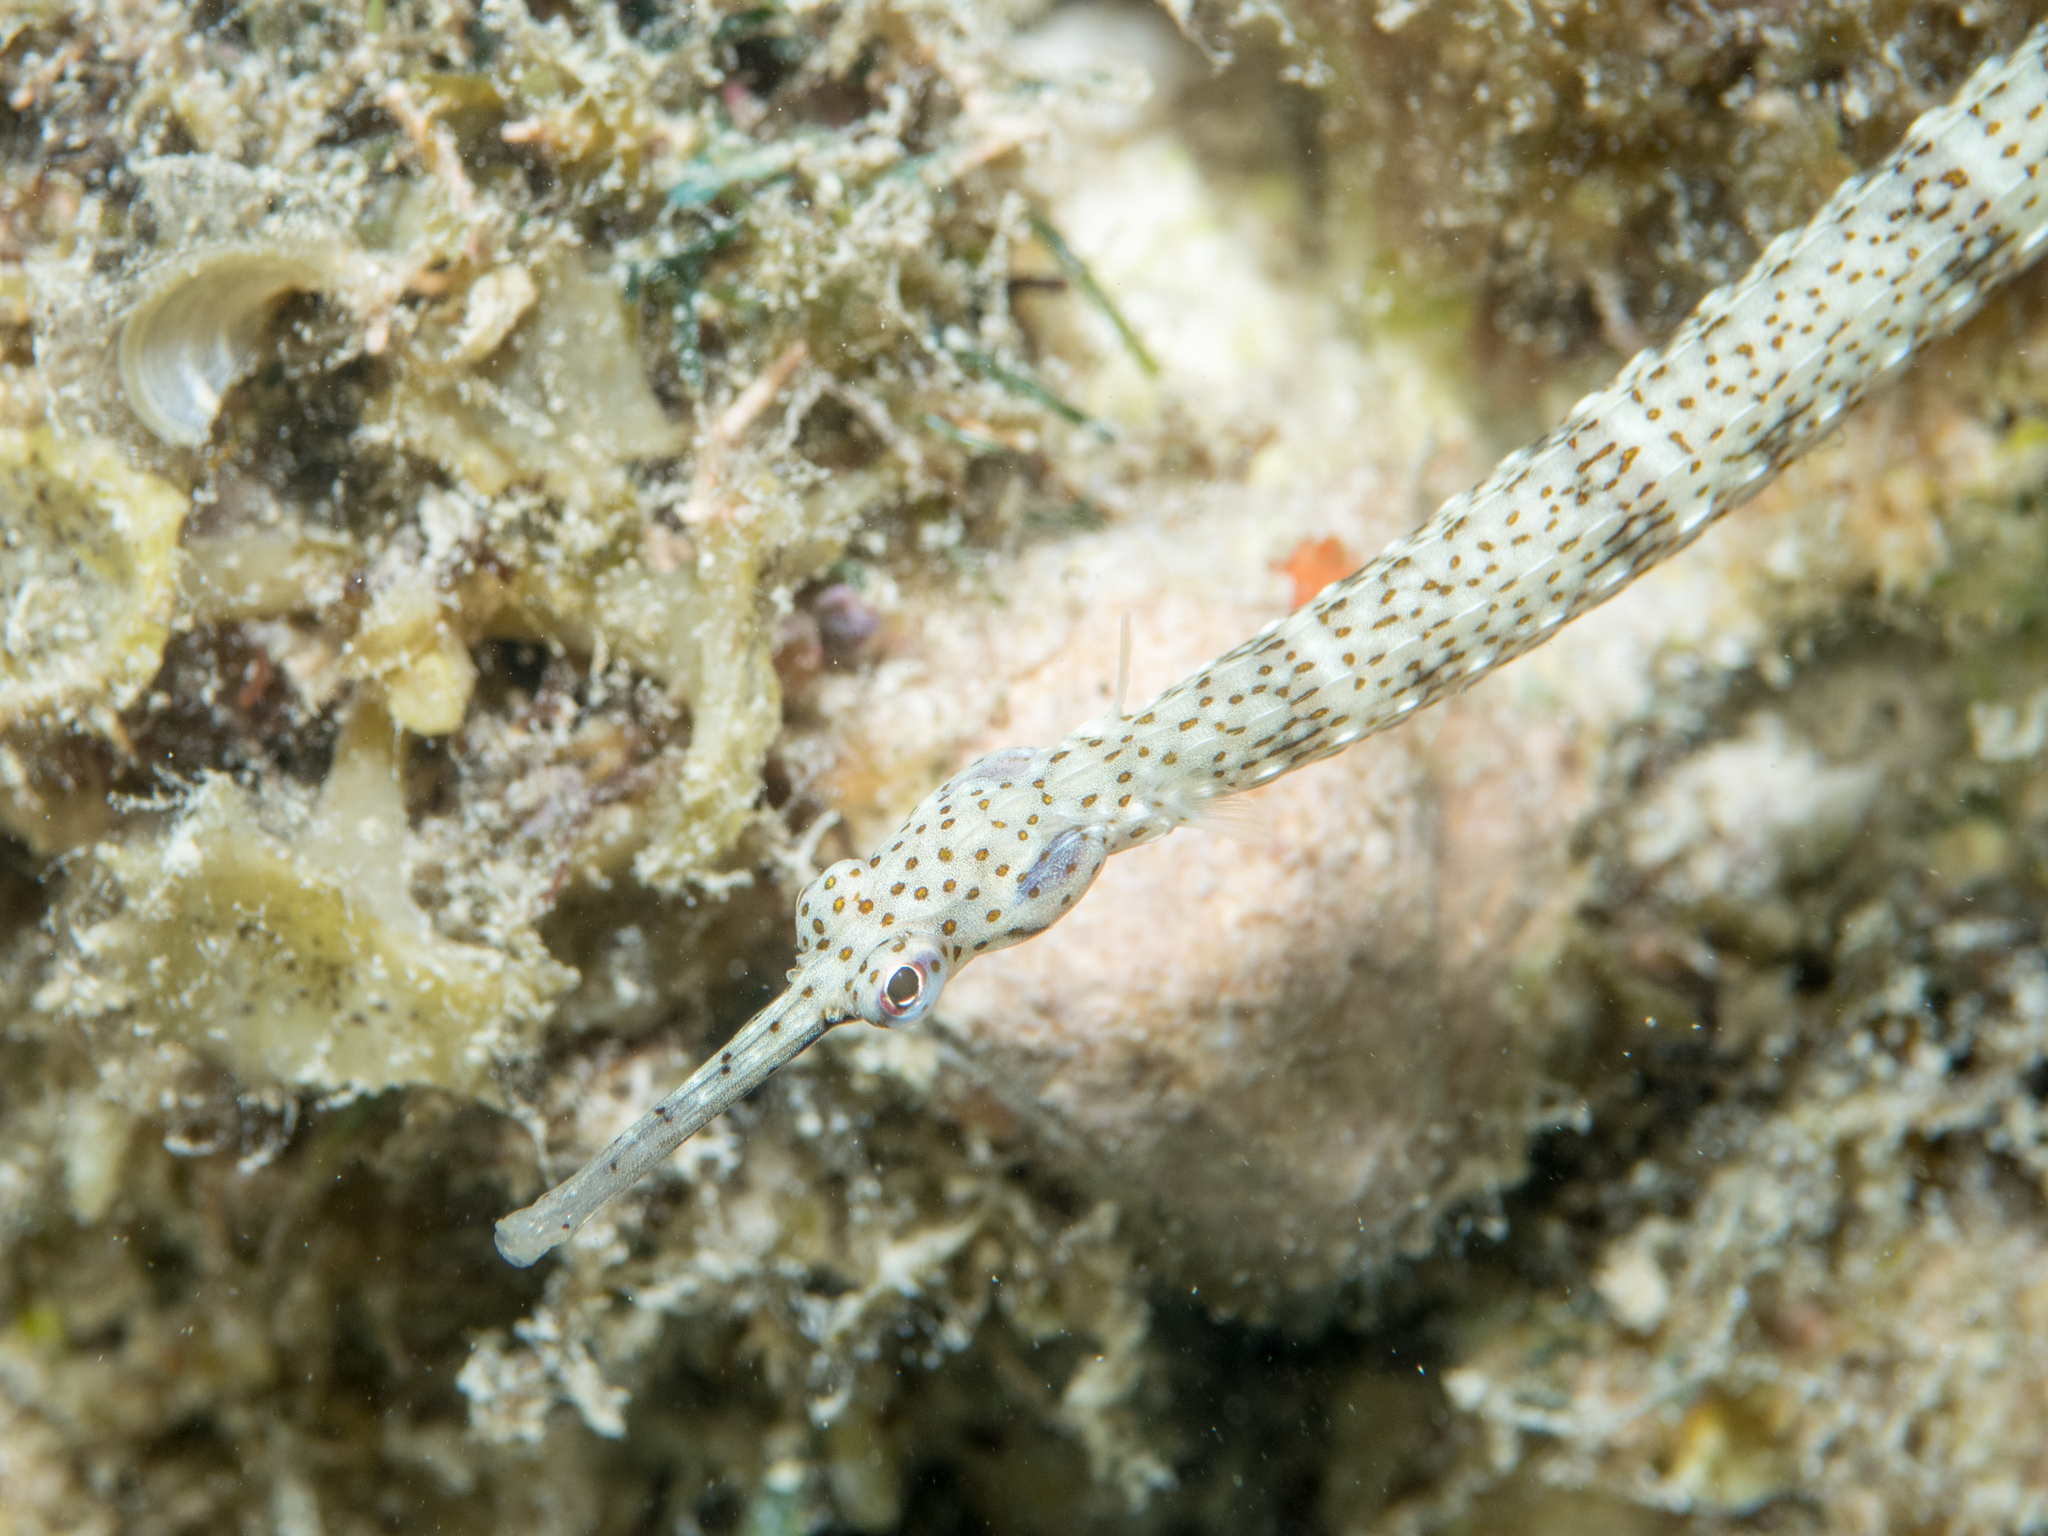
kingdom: Animalia
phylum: Chordata
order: Syngnathiformes
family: Syngnathidae
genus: Corythoichthys
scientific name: Corythoichthys schultzi
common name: Guilded pipefish
